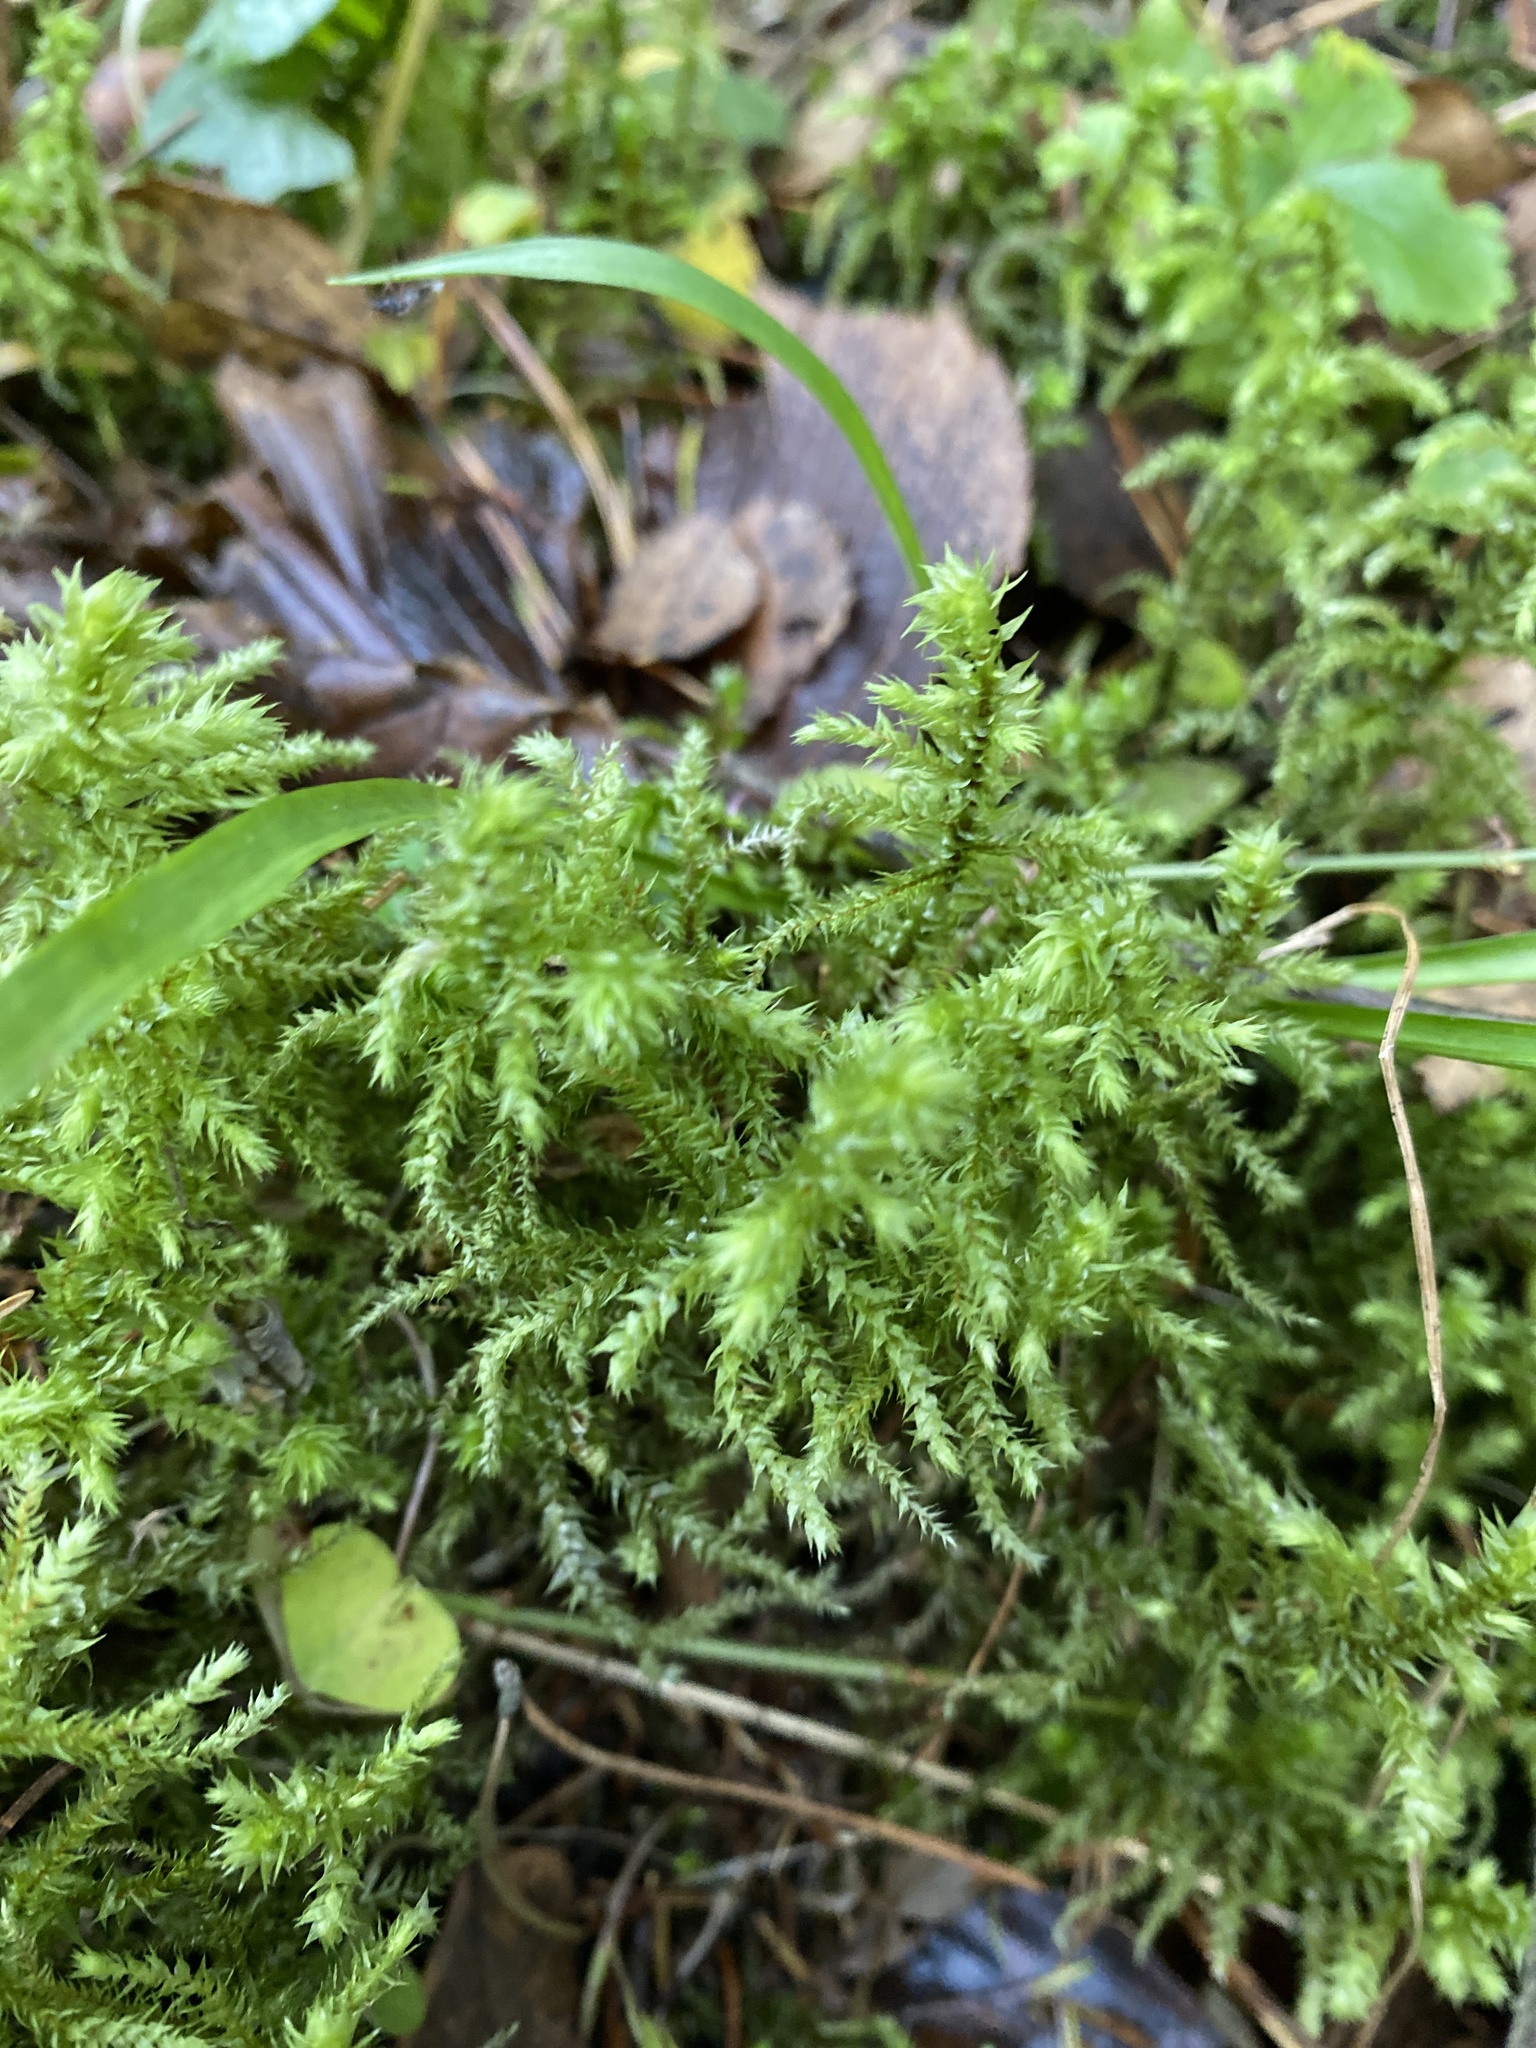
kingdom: Plantae
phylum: Bryophyta
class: Bryopsida
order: Hypnales
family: Hylocomiaceae
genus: Hylocomiadelphus
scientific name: Hylocomiadelphus triquetrus
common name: Rough goose neck moss
